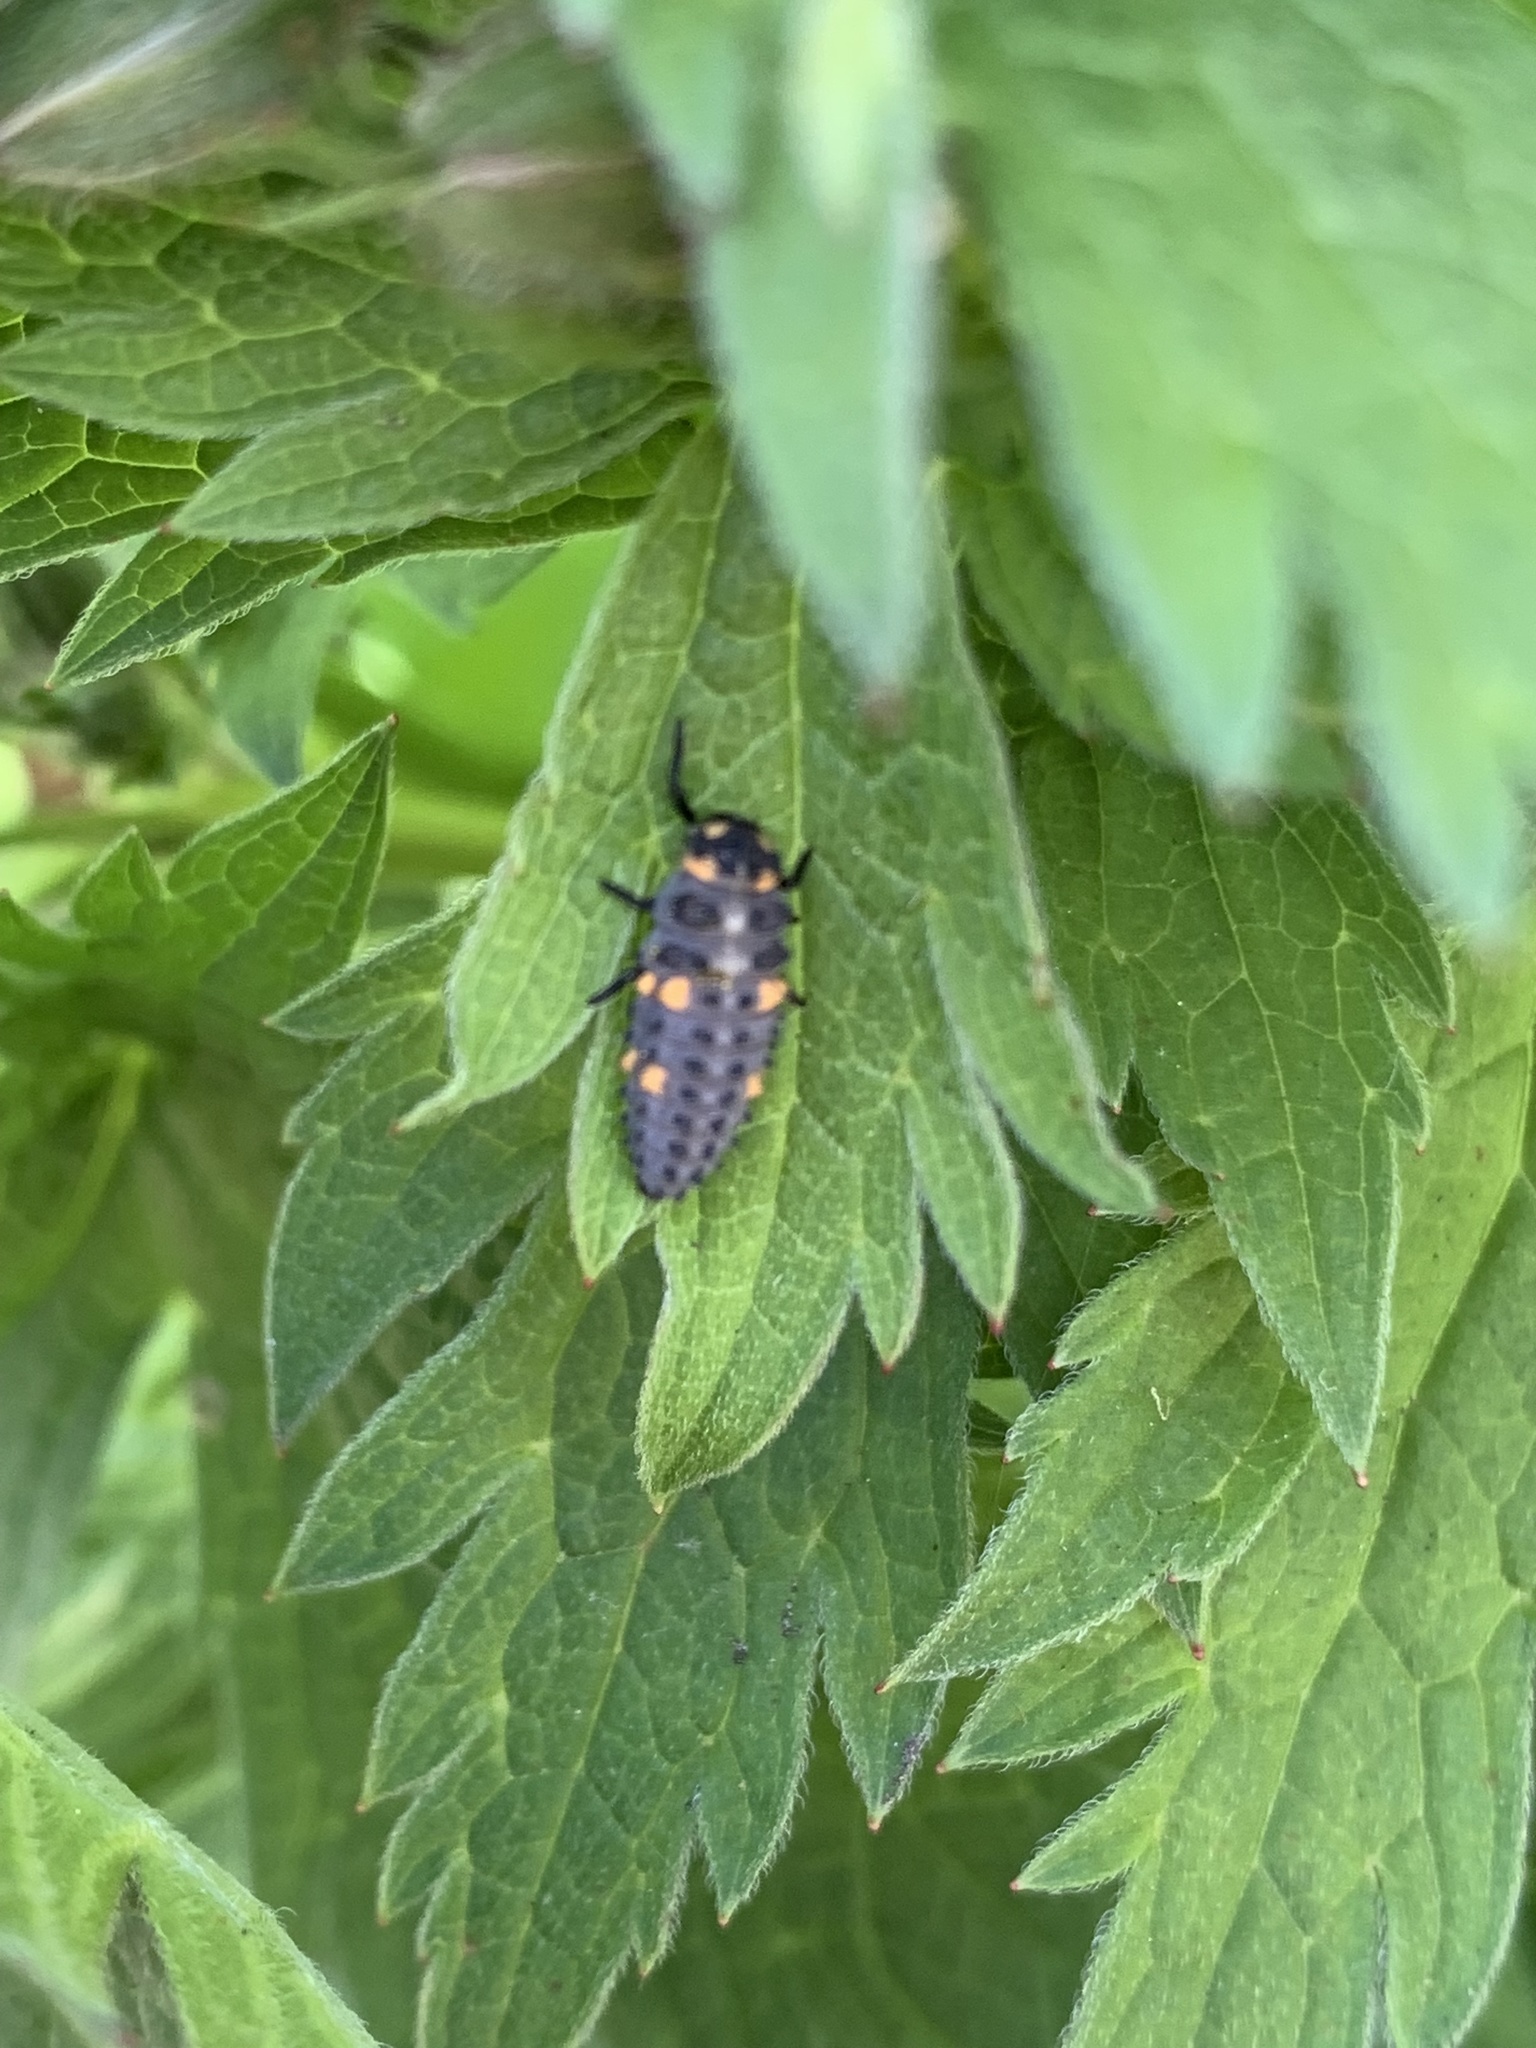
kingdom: Animalia
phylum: Arthropoda
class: Insecta
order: Coleoptera
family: Coccinellidae
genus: Coccinella
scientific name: Coccinella septempunctata
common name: Sevenspotted lady beetle
